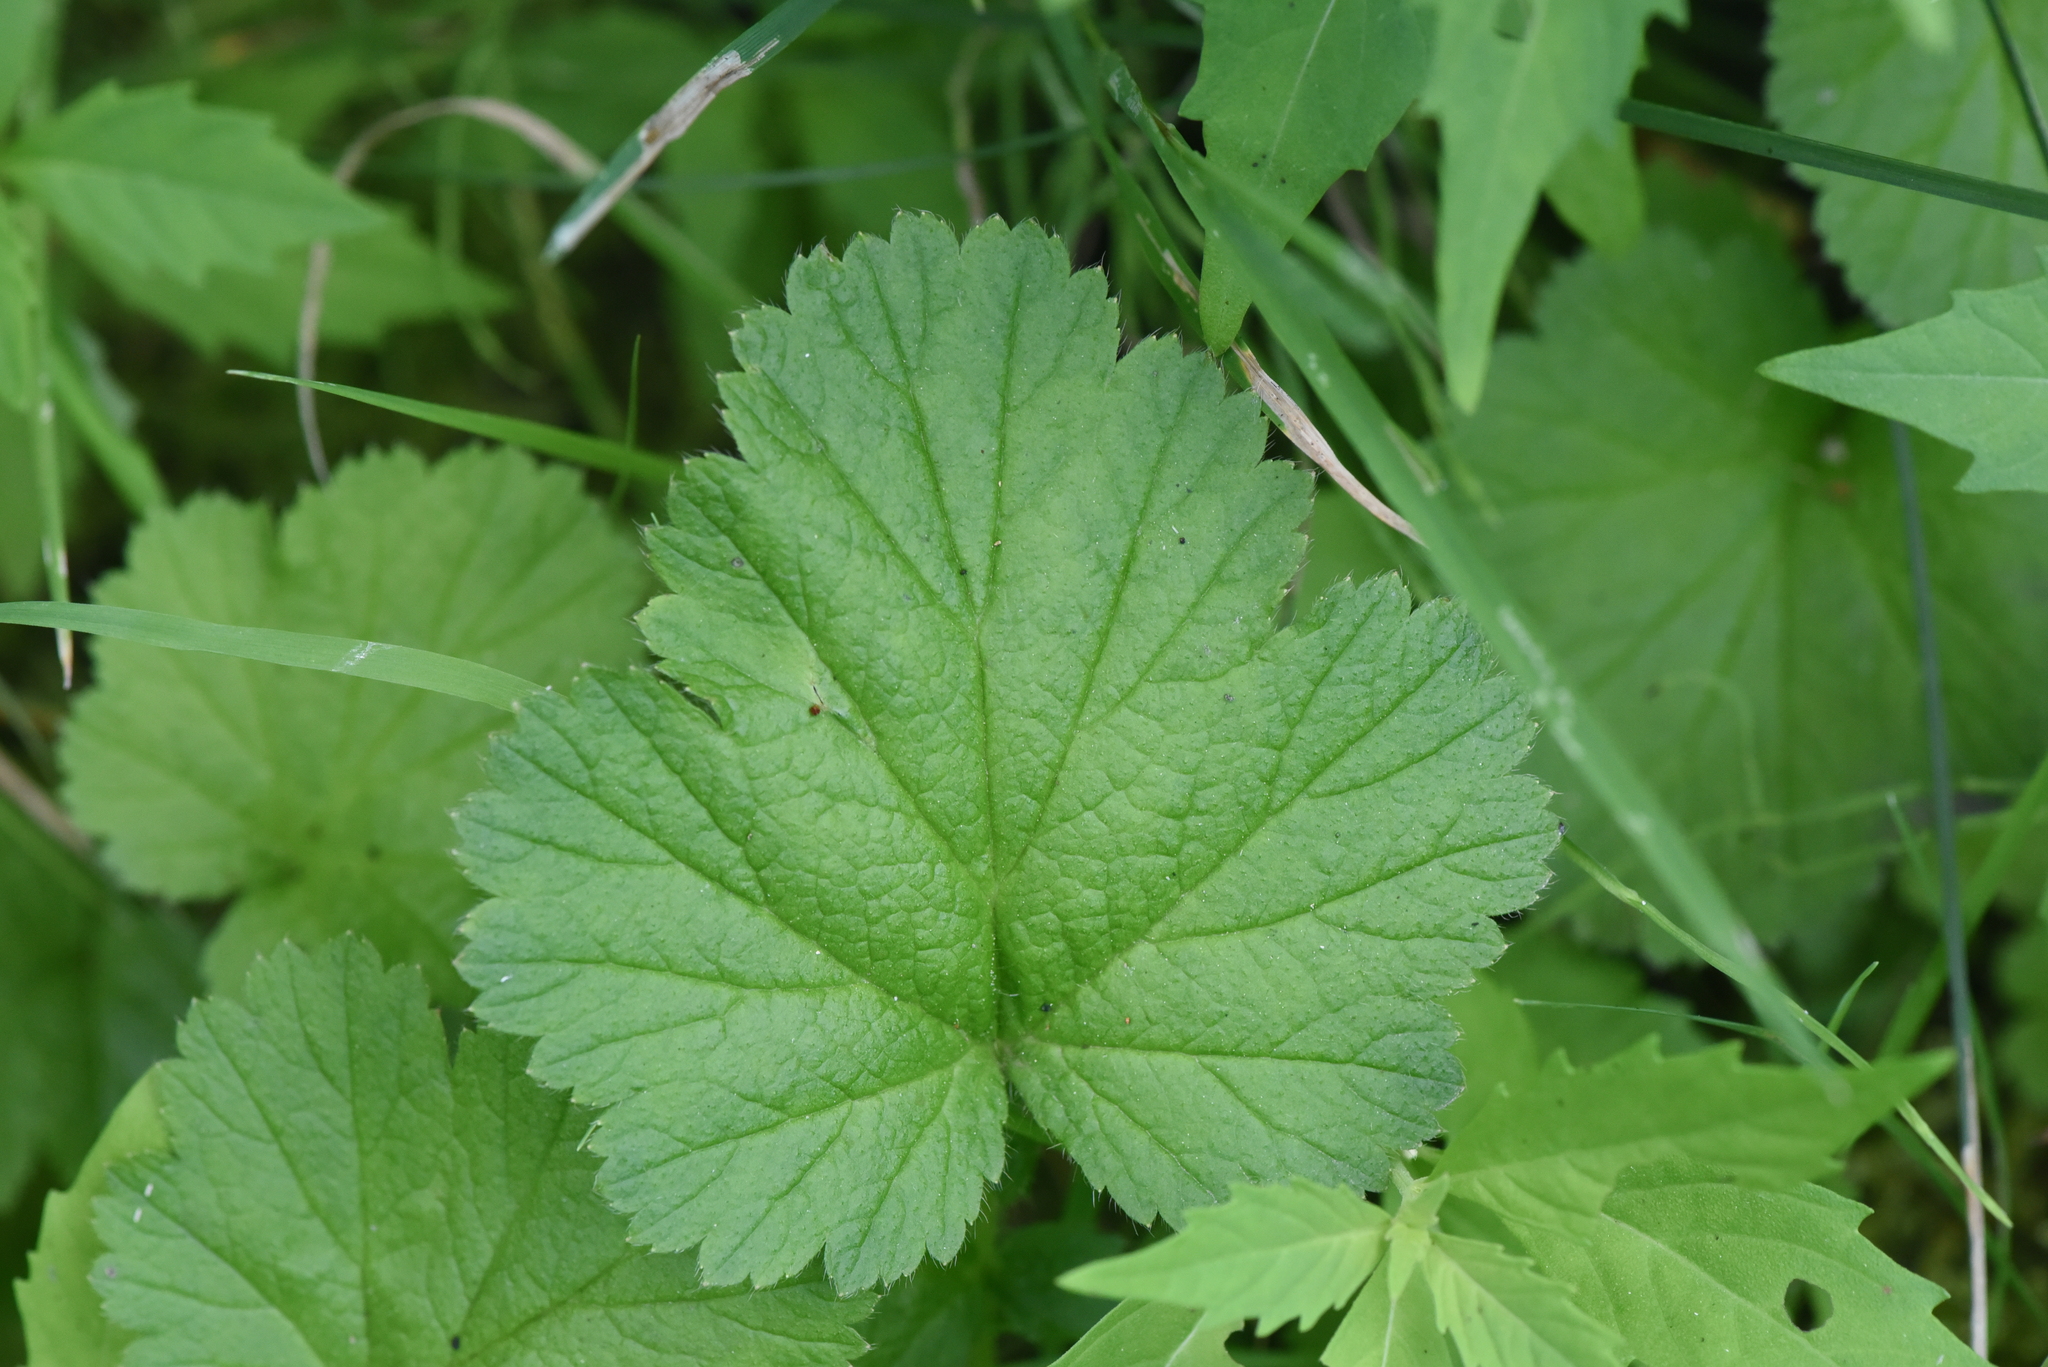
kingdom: Plantae
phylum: Tracheophyta
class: Magnoliopsida
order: Rosales
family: Rosaceae
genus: Geum
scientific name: Geum macrophyllum
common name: Large-leaved avens
